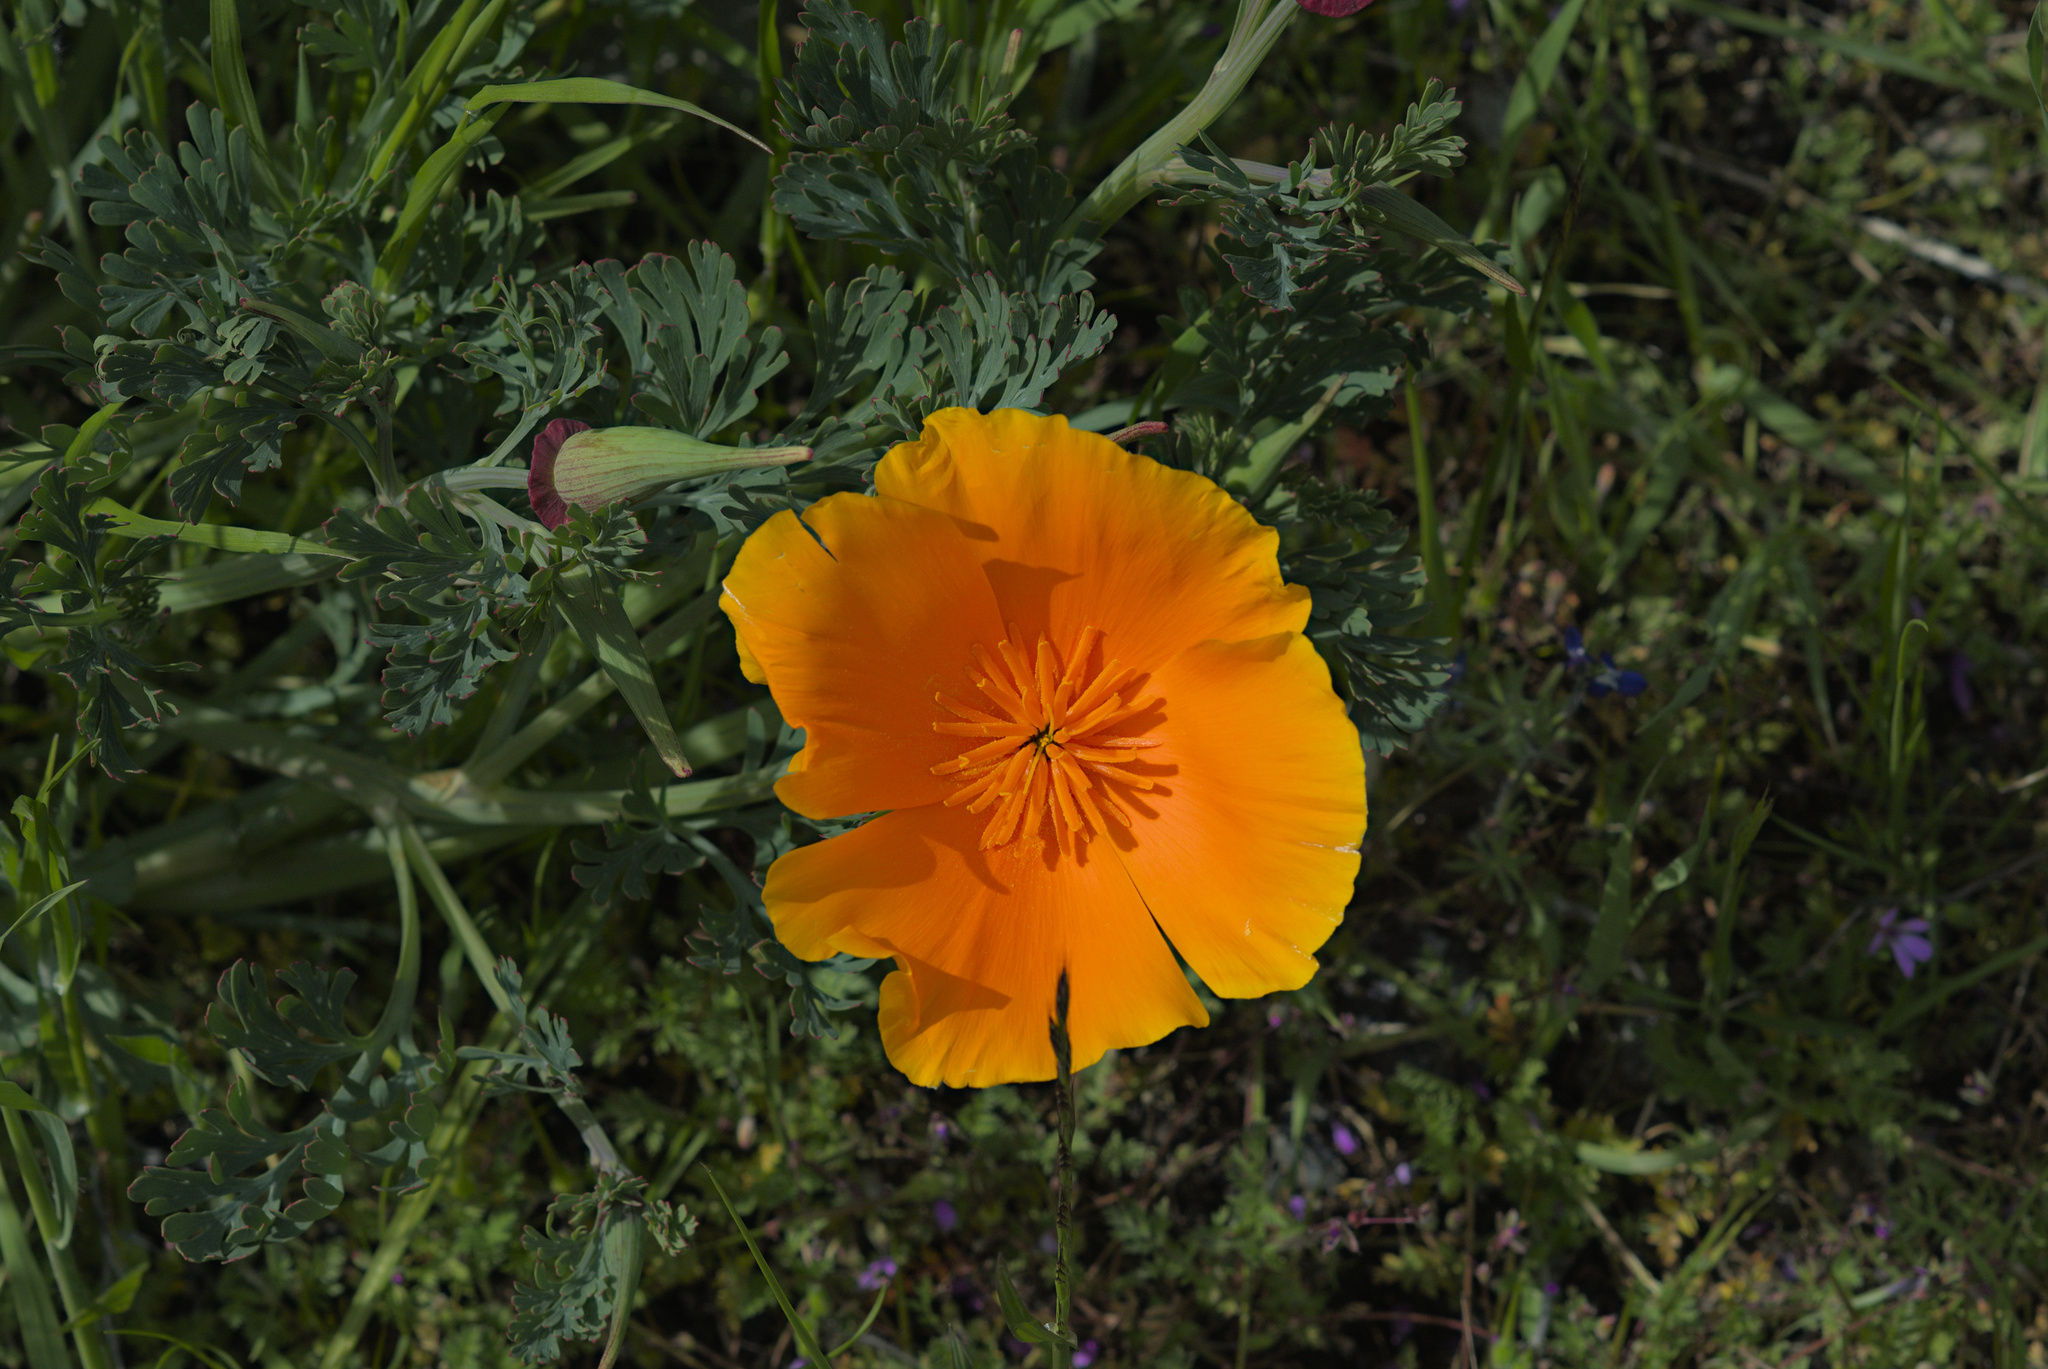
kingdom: Plantae
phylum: Tracheophyta
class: Magnoliopsida
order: Ranunculales
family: Papaveraceae
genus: Eschscholzia
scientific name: Eschscholzia californica
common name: California poppy
